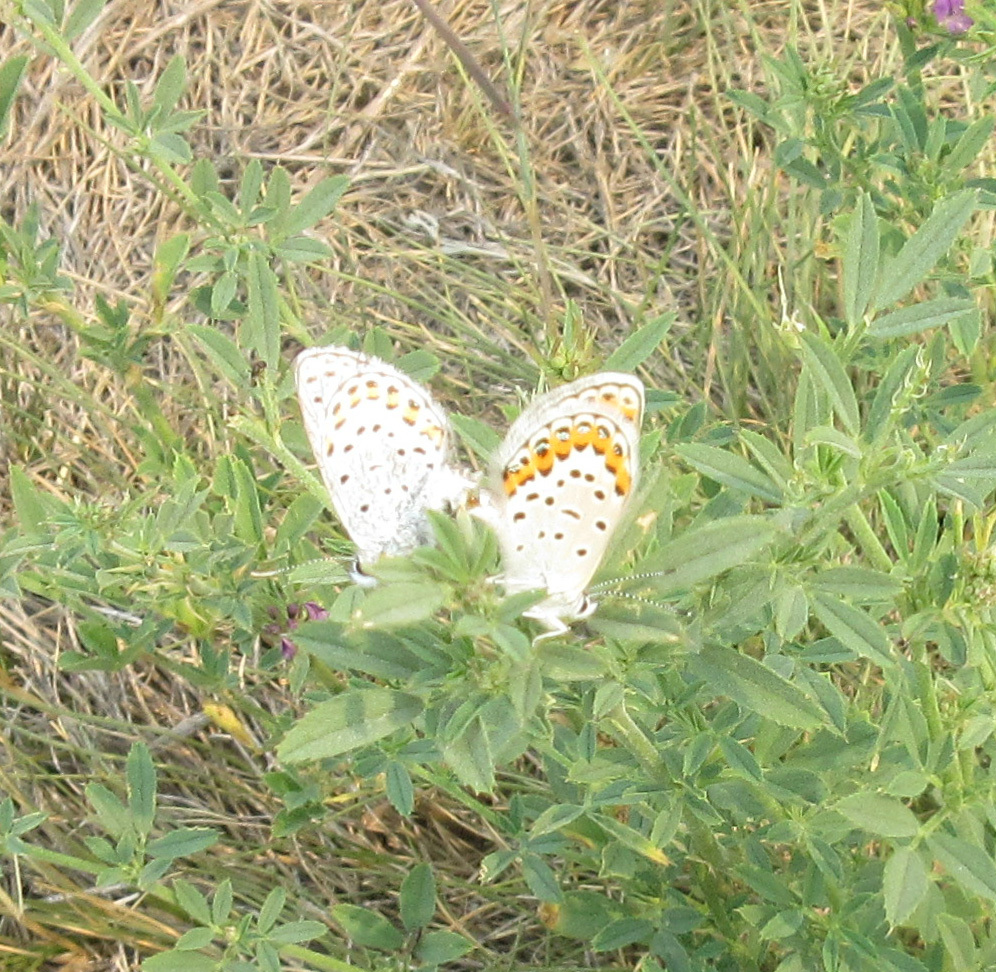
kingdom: Animalia
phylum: Arthropoda
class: Insecta
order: Lepidoptera
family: Lycaenidae
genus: Lycaeides
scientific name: Lycaeides melissa
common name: Melissa blue
